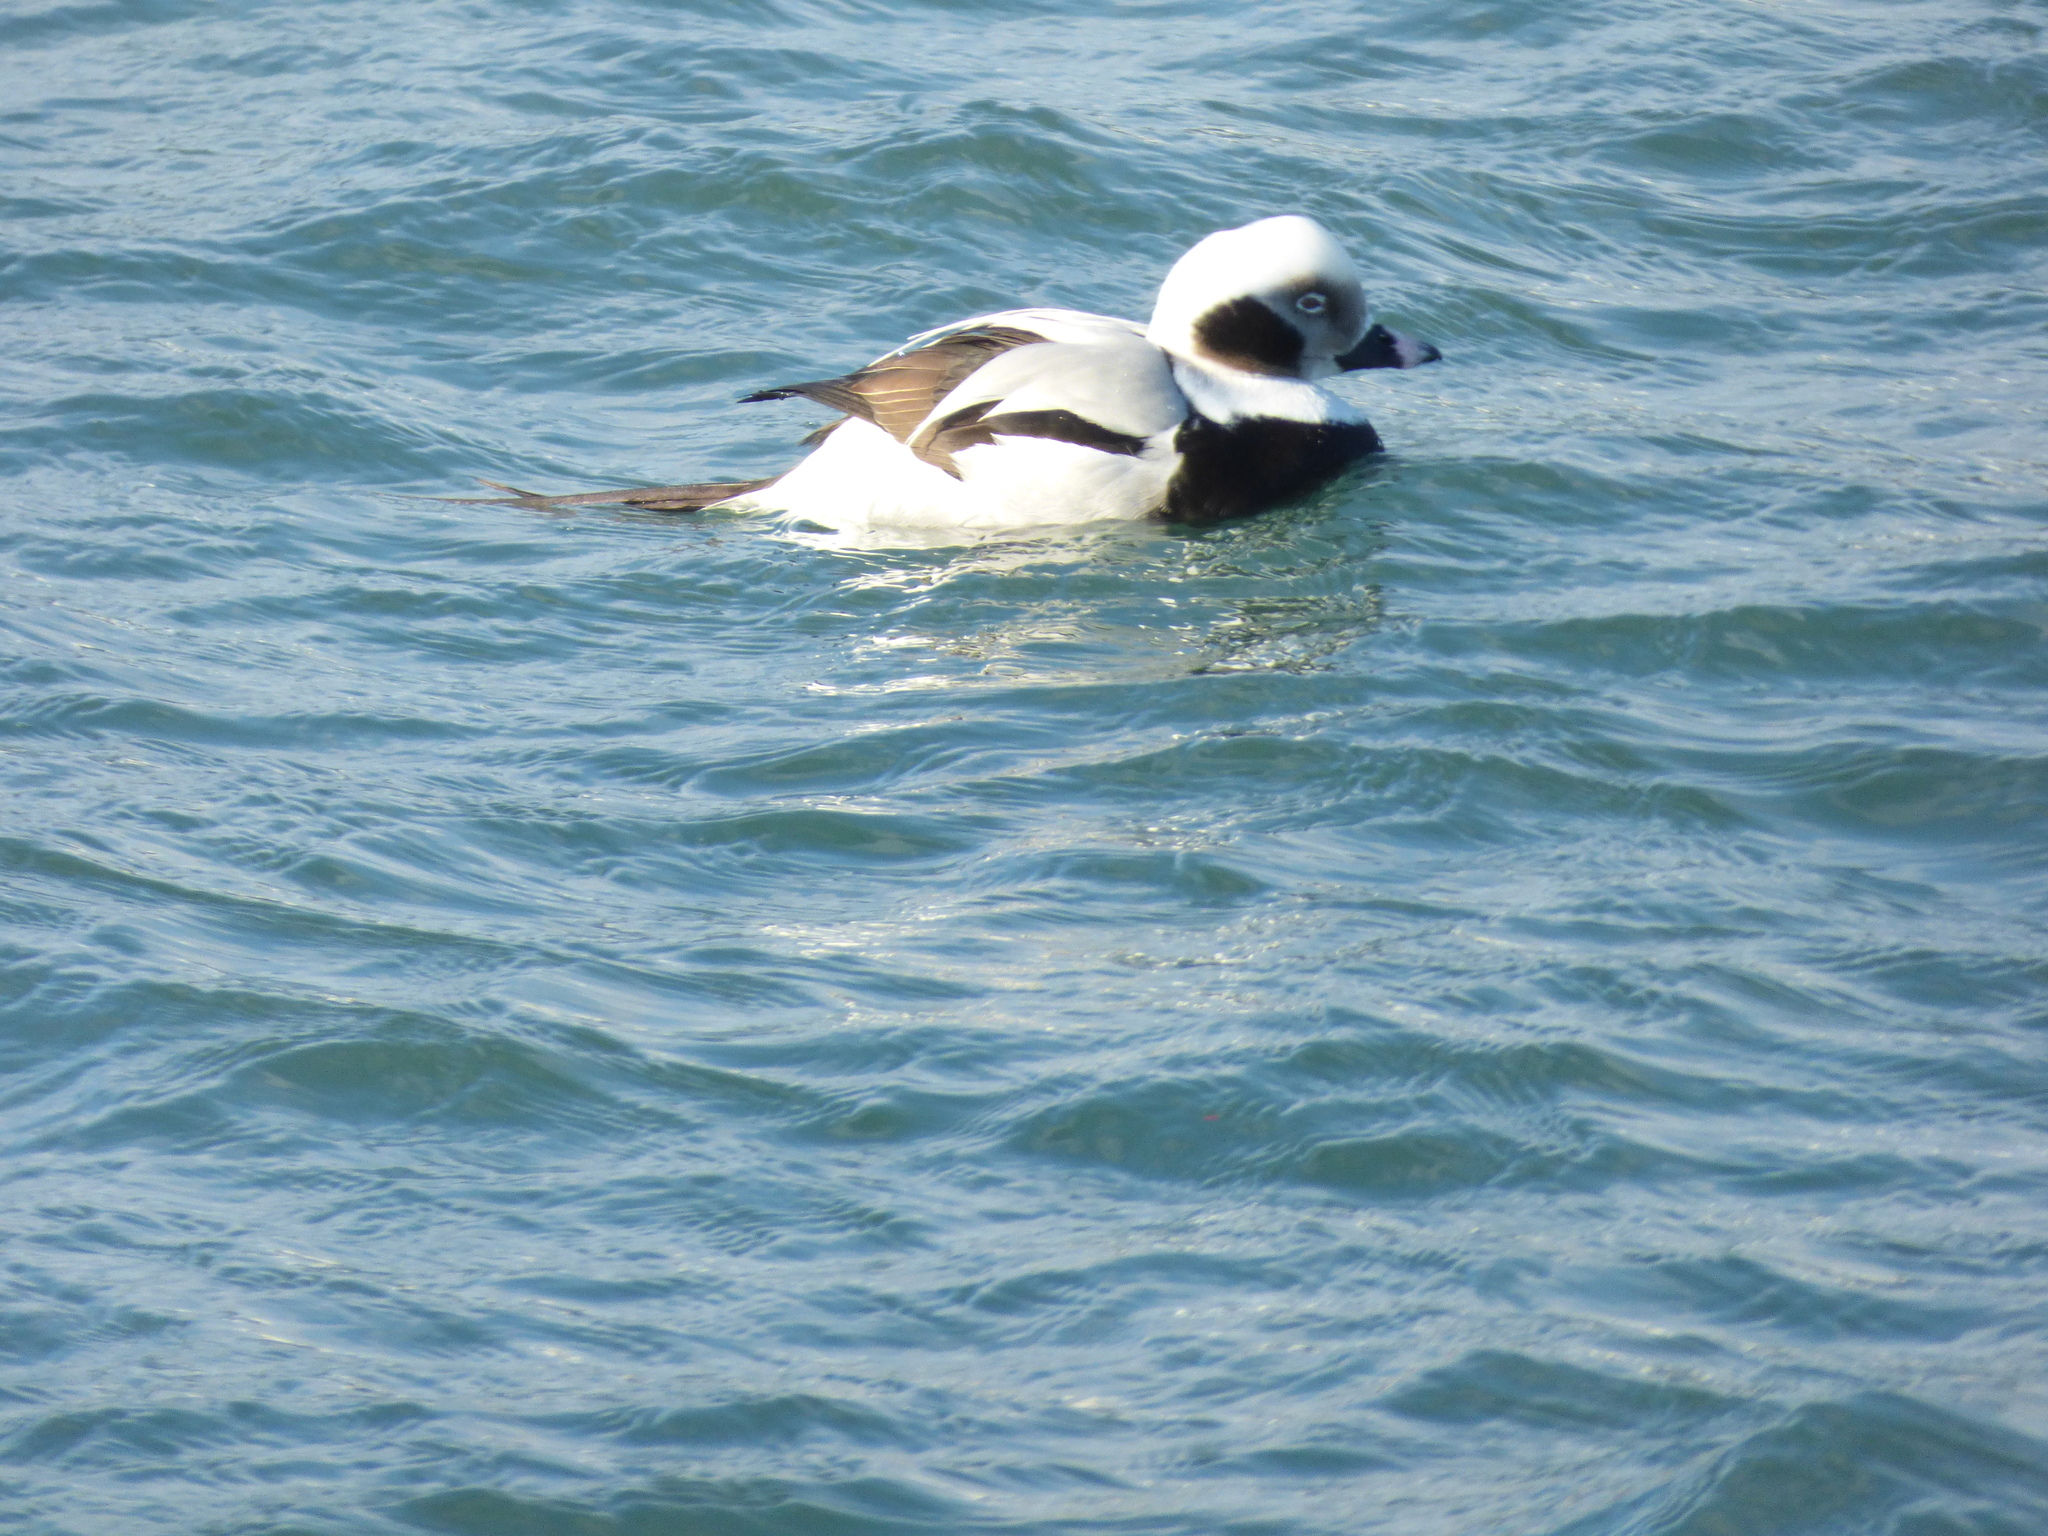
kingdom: Animalia
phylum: Chordata
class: Aves
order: Anseriformes
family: Anatidae
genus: Clangula
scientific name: Clangula hyemalis
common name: Long-tailed duck
